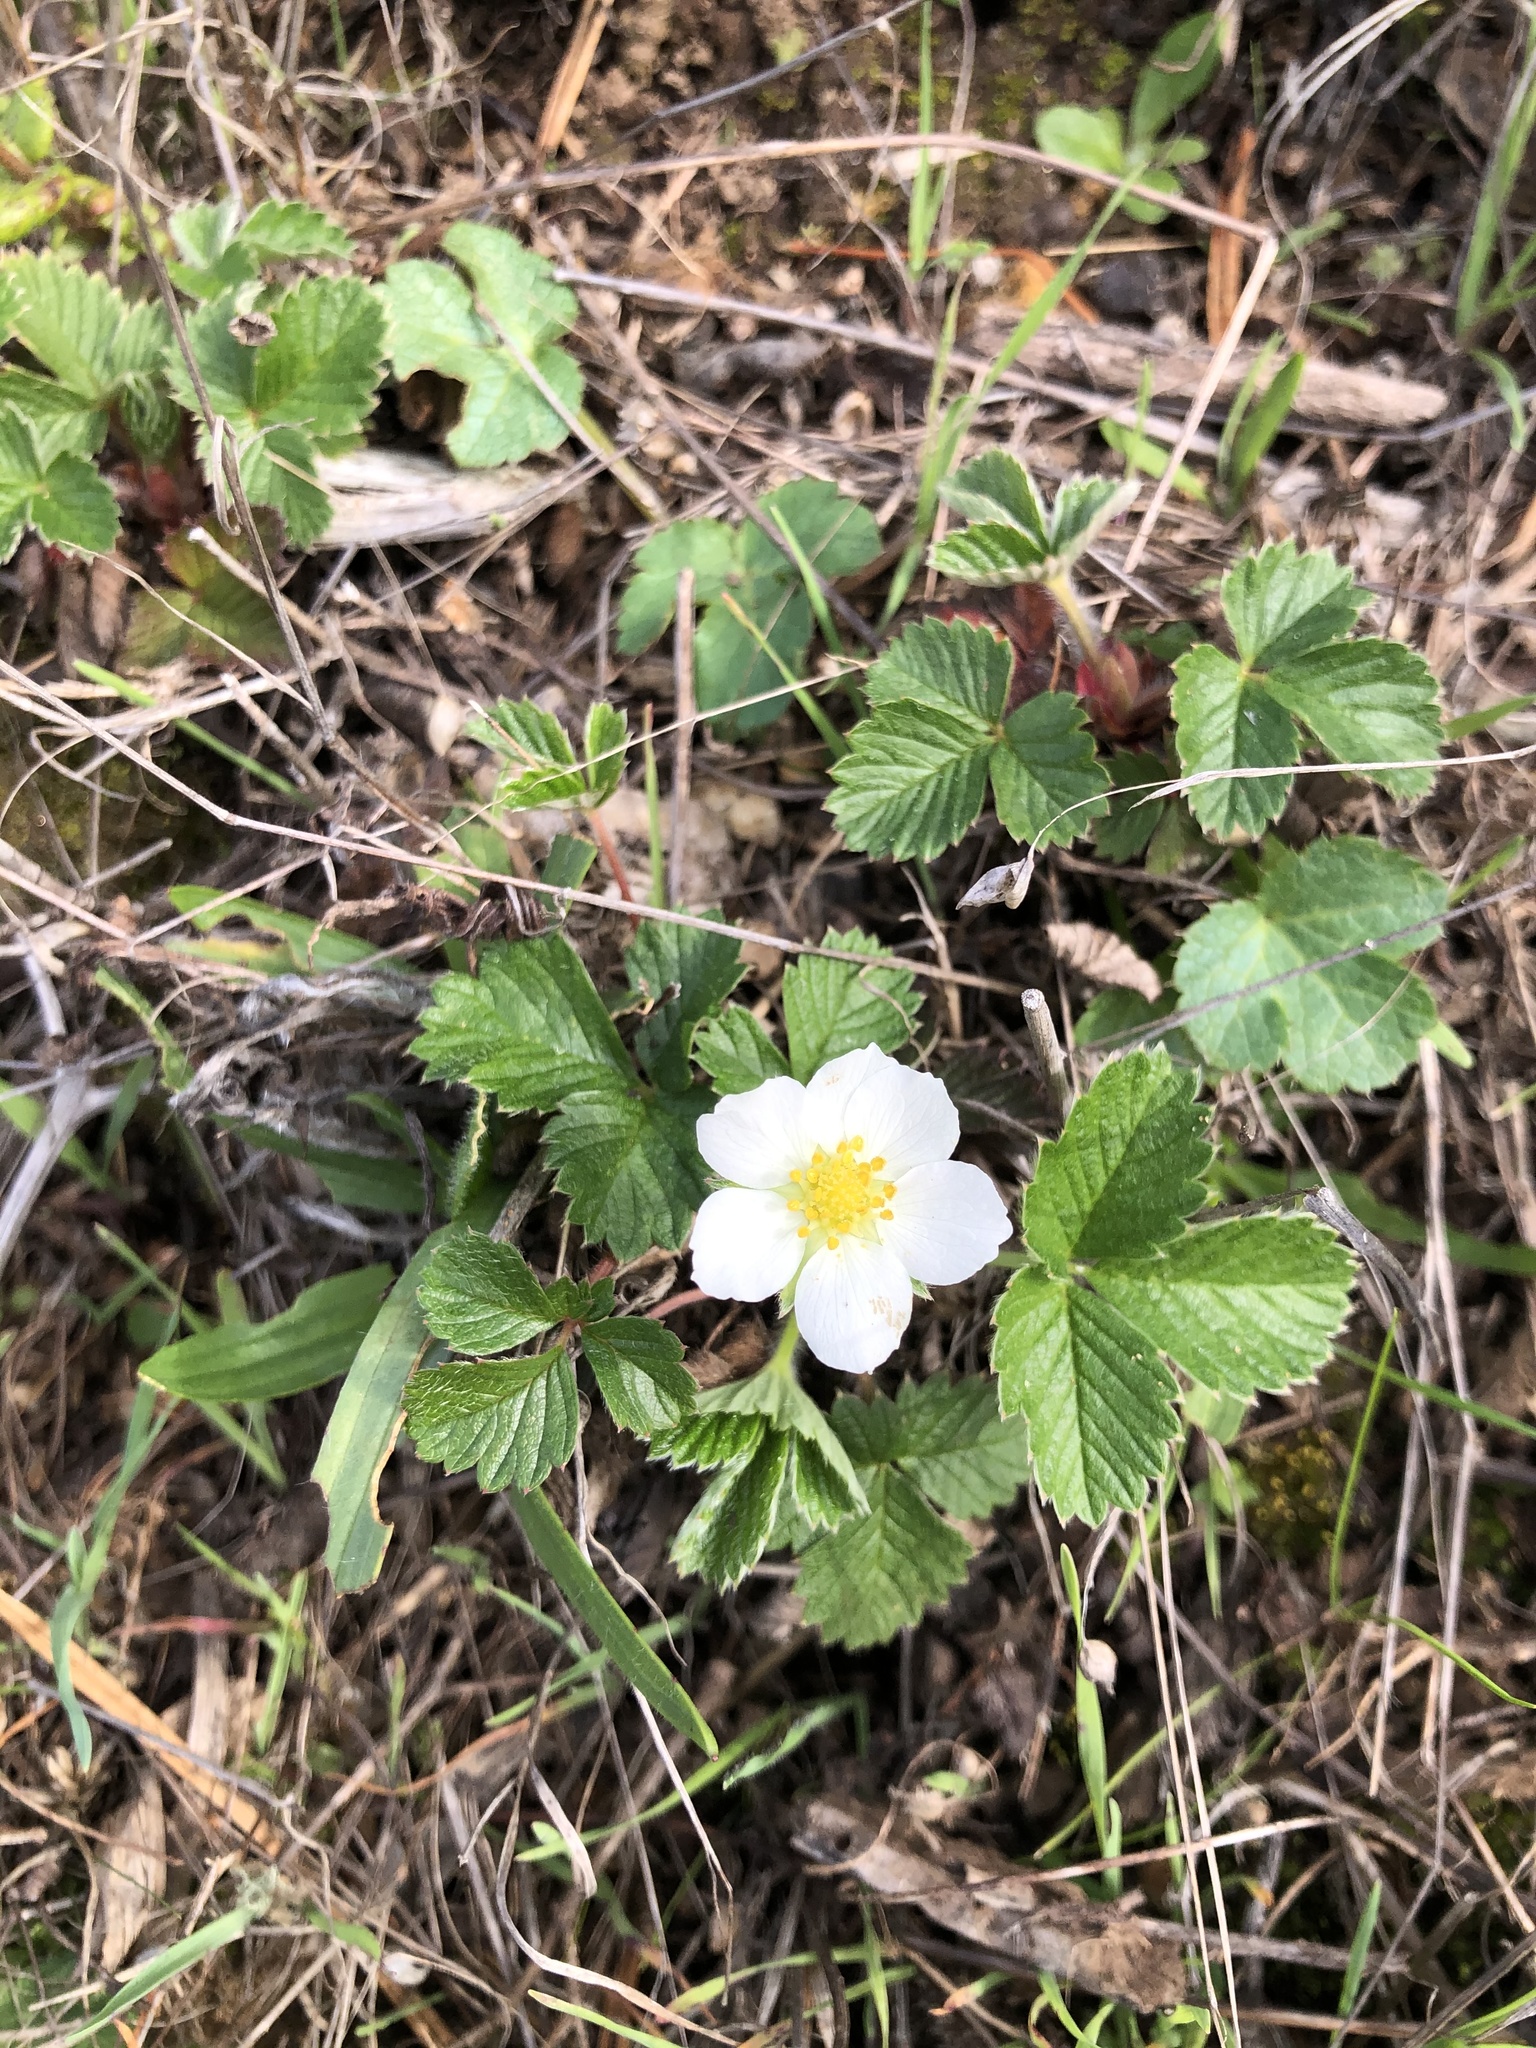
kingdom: Plantae
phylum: Tracheophyta
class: Magnoliopsida
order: Rosales
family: Rosaceae
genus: Fragaria
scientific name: Fragaria vesca
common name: Wild strawberry
